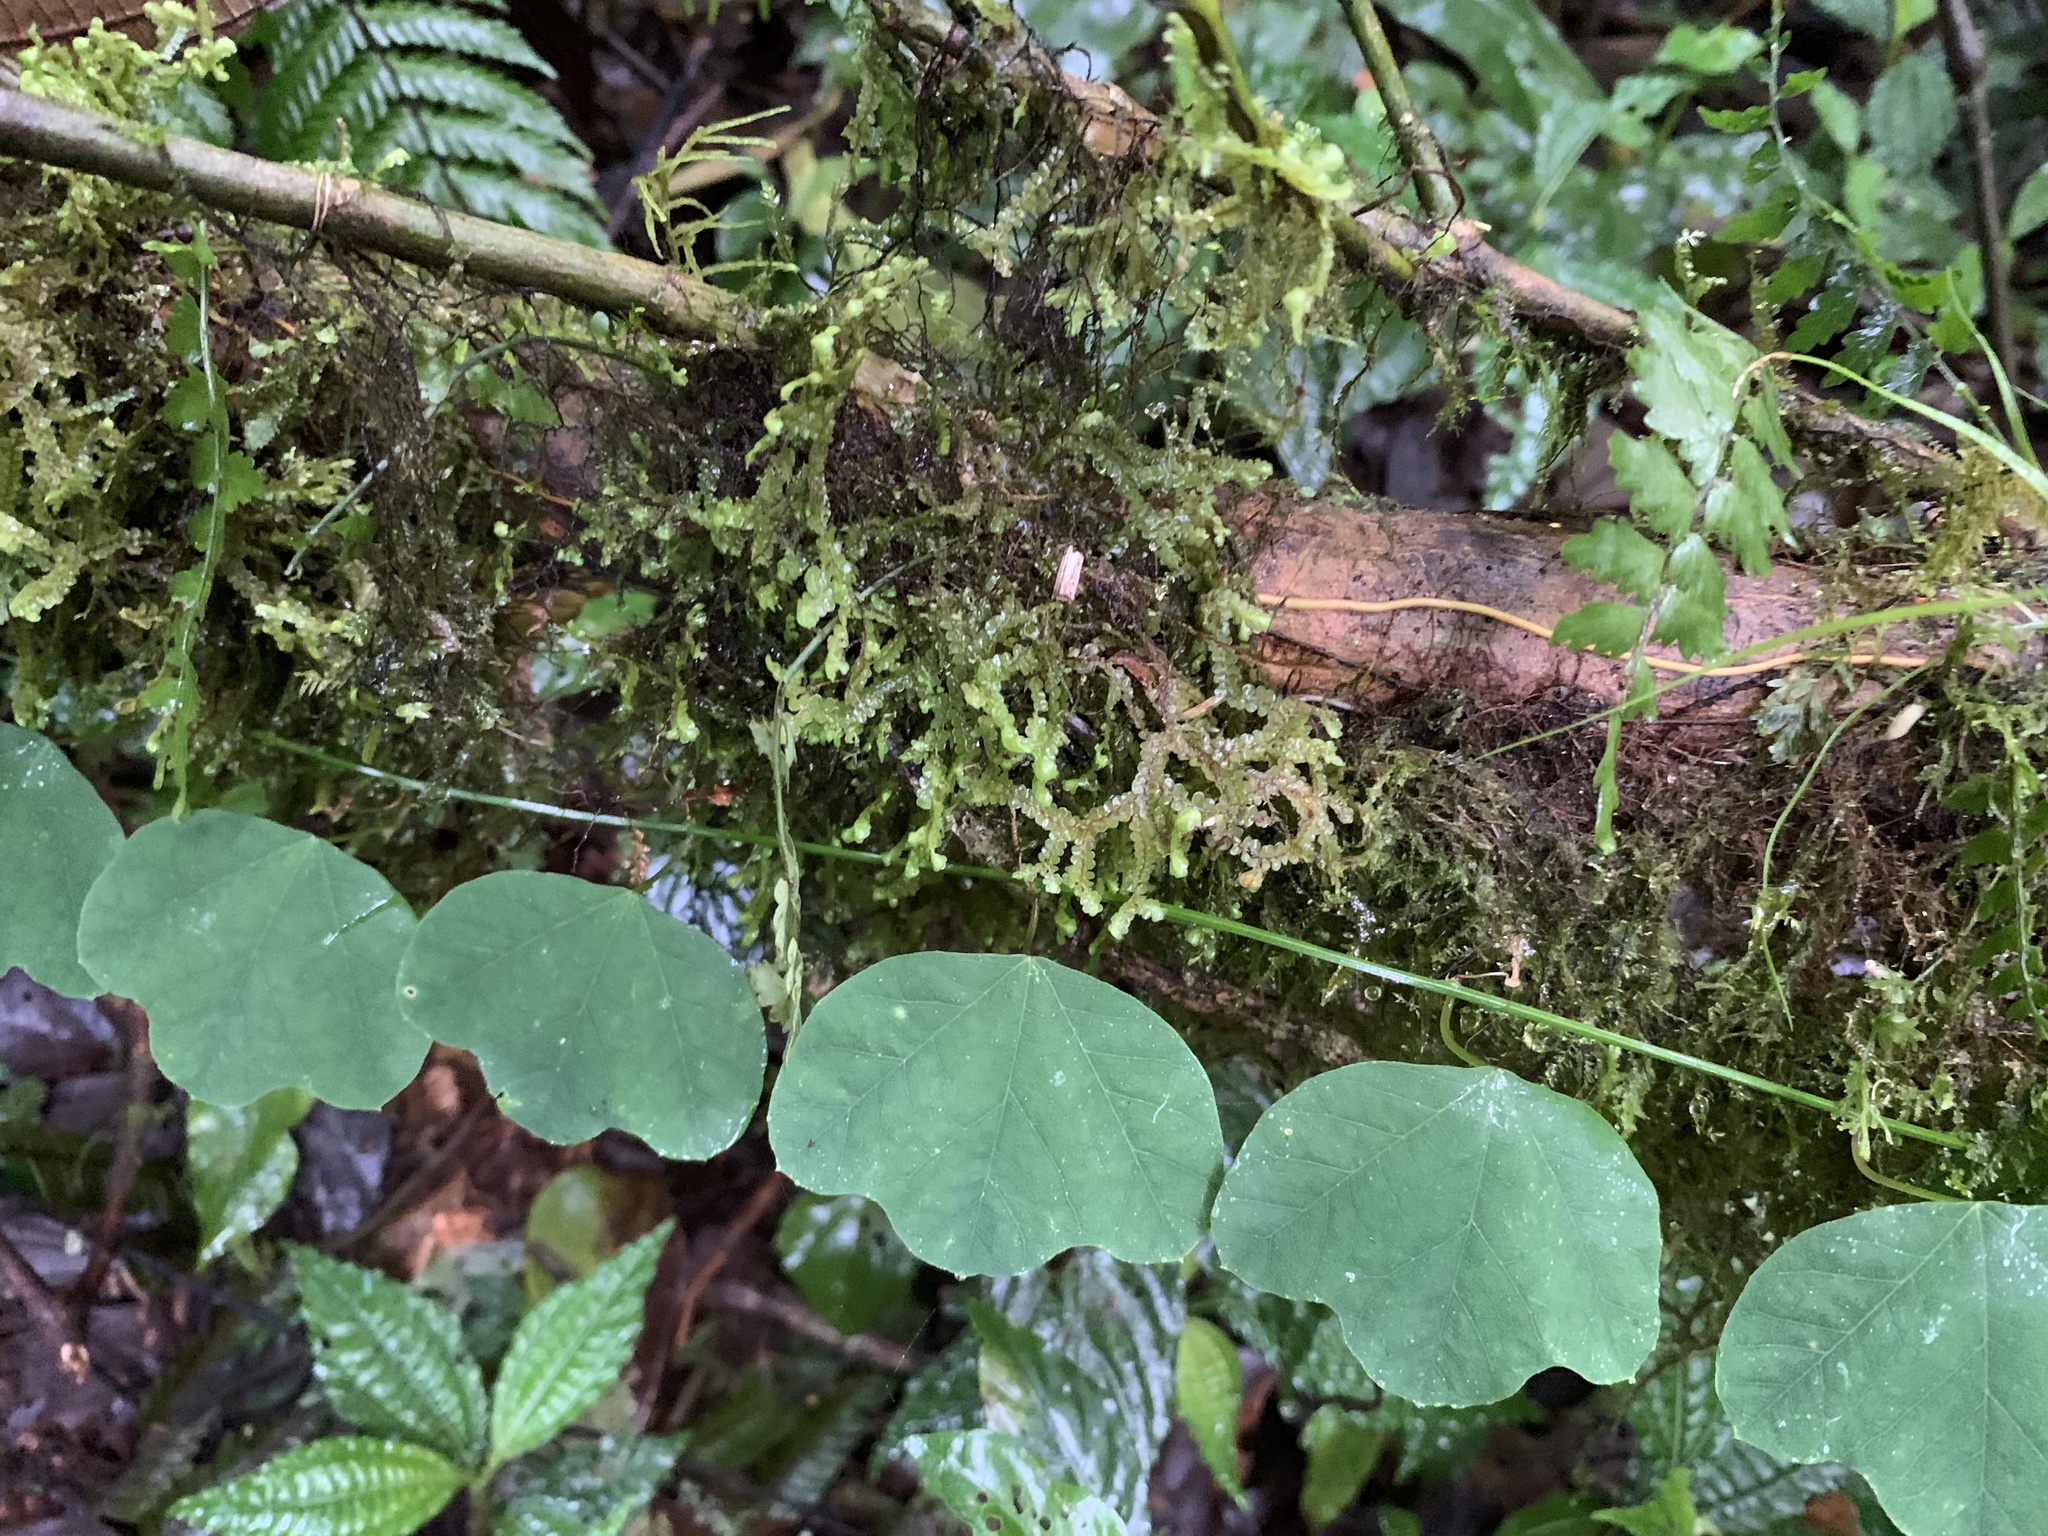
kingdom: Plantae
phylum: Tracheophyta
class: Magnoliopsida
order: Malpighiales
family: Passifloraceae
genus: Passiflora
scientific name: Passiflora lancearia
